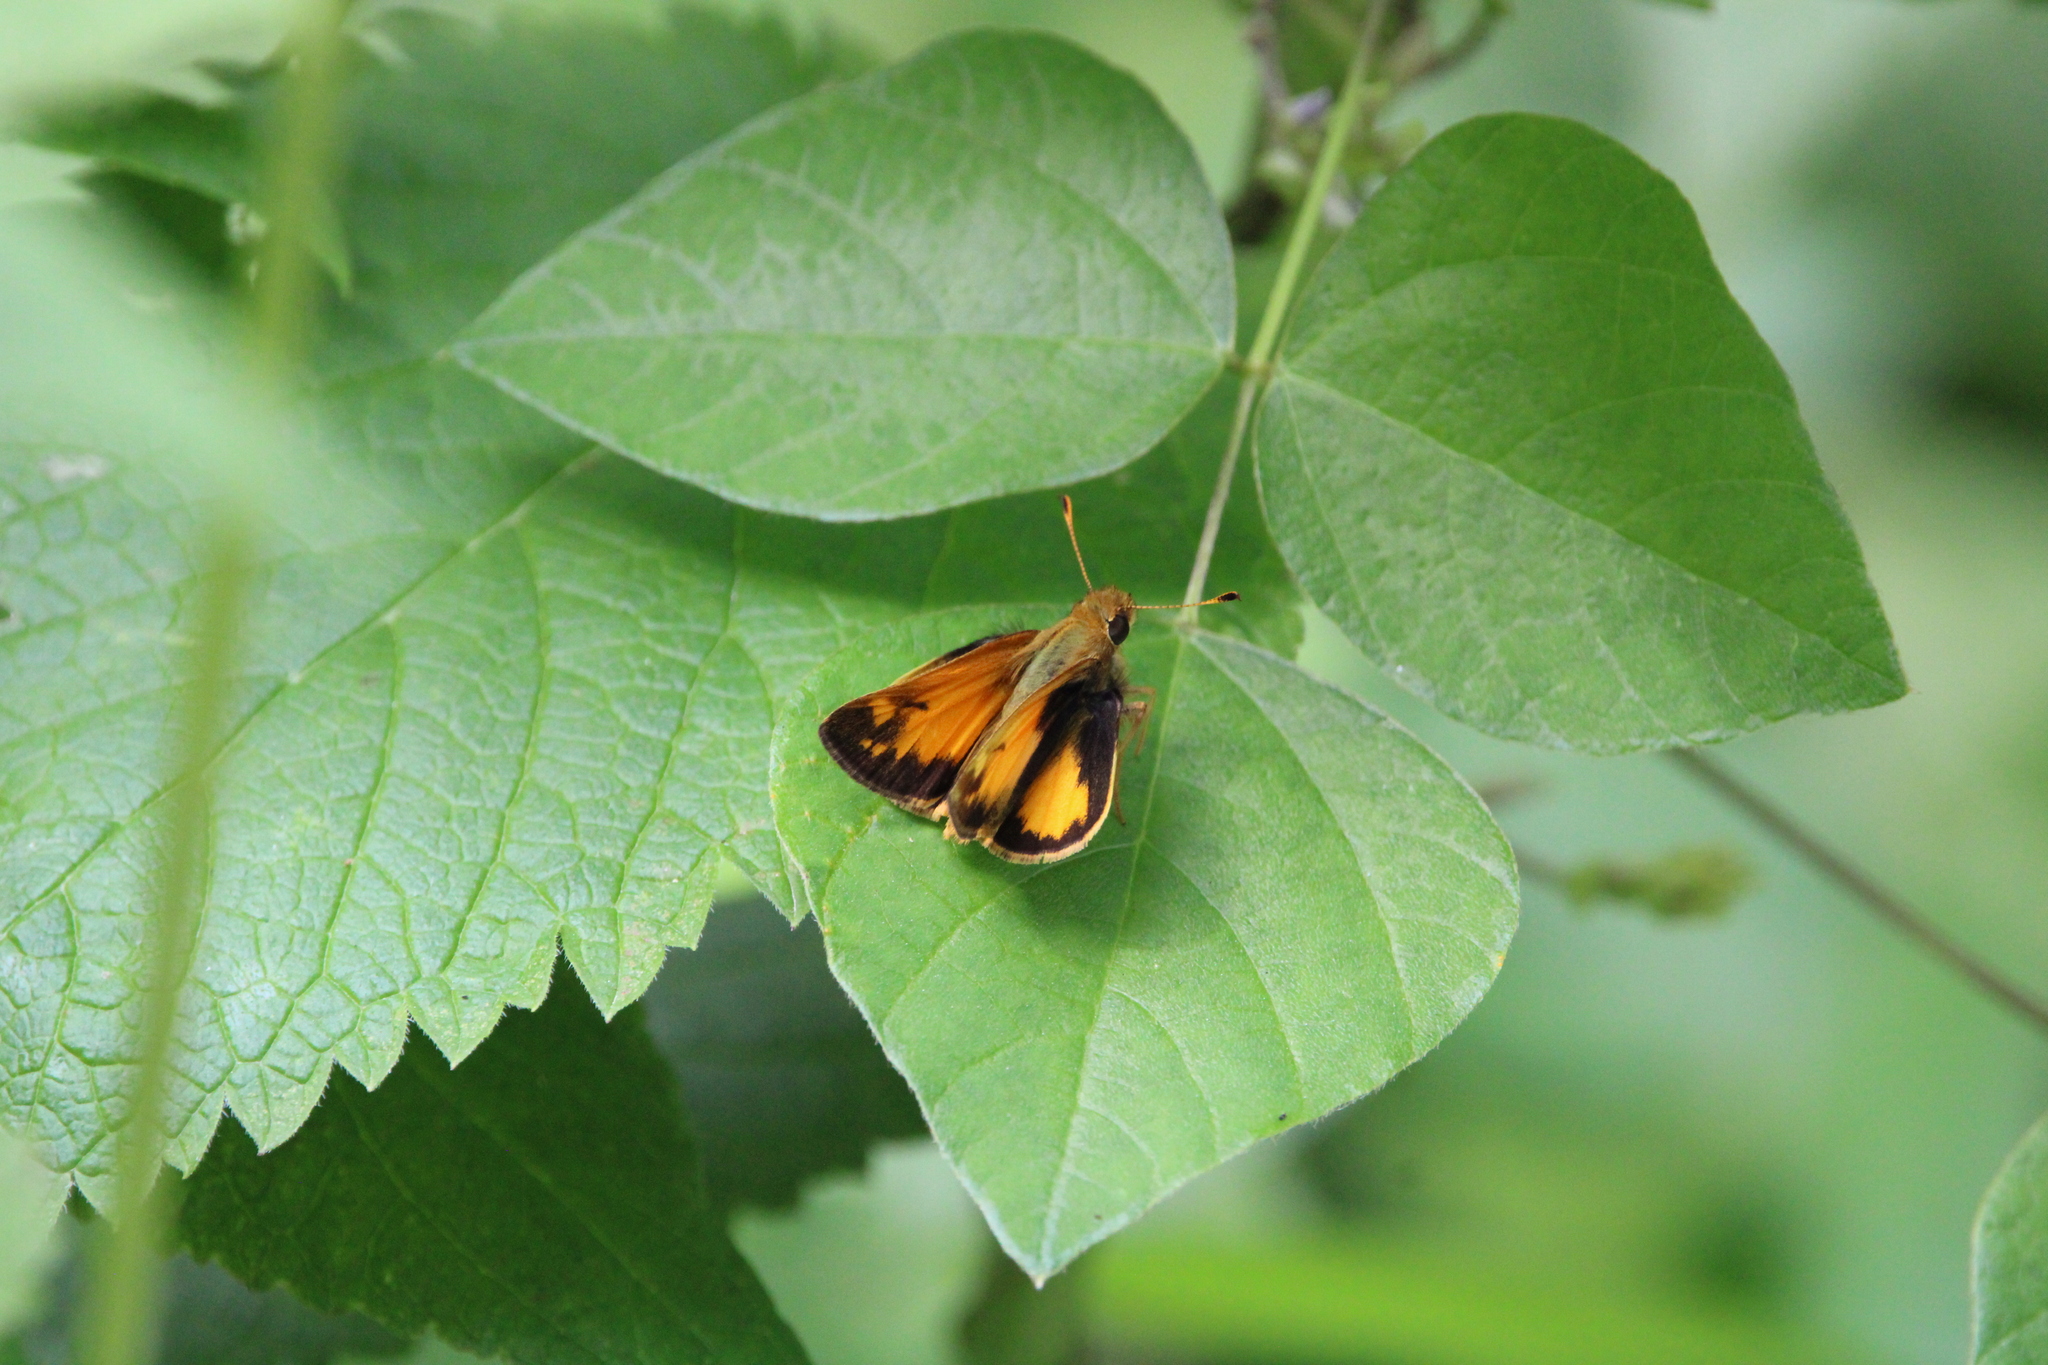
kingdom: Animalia
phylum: Arthropoda
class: Insecta
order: Lepidoptera
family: Hesperiidae
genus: Lon
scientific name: Lon zabulon
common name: Zabulon skipper
